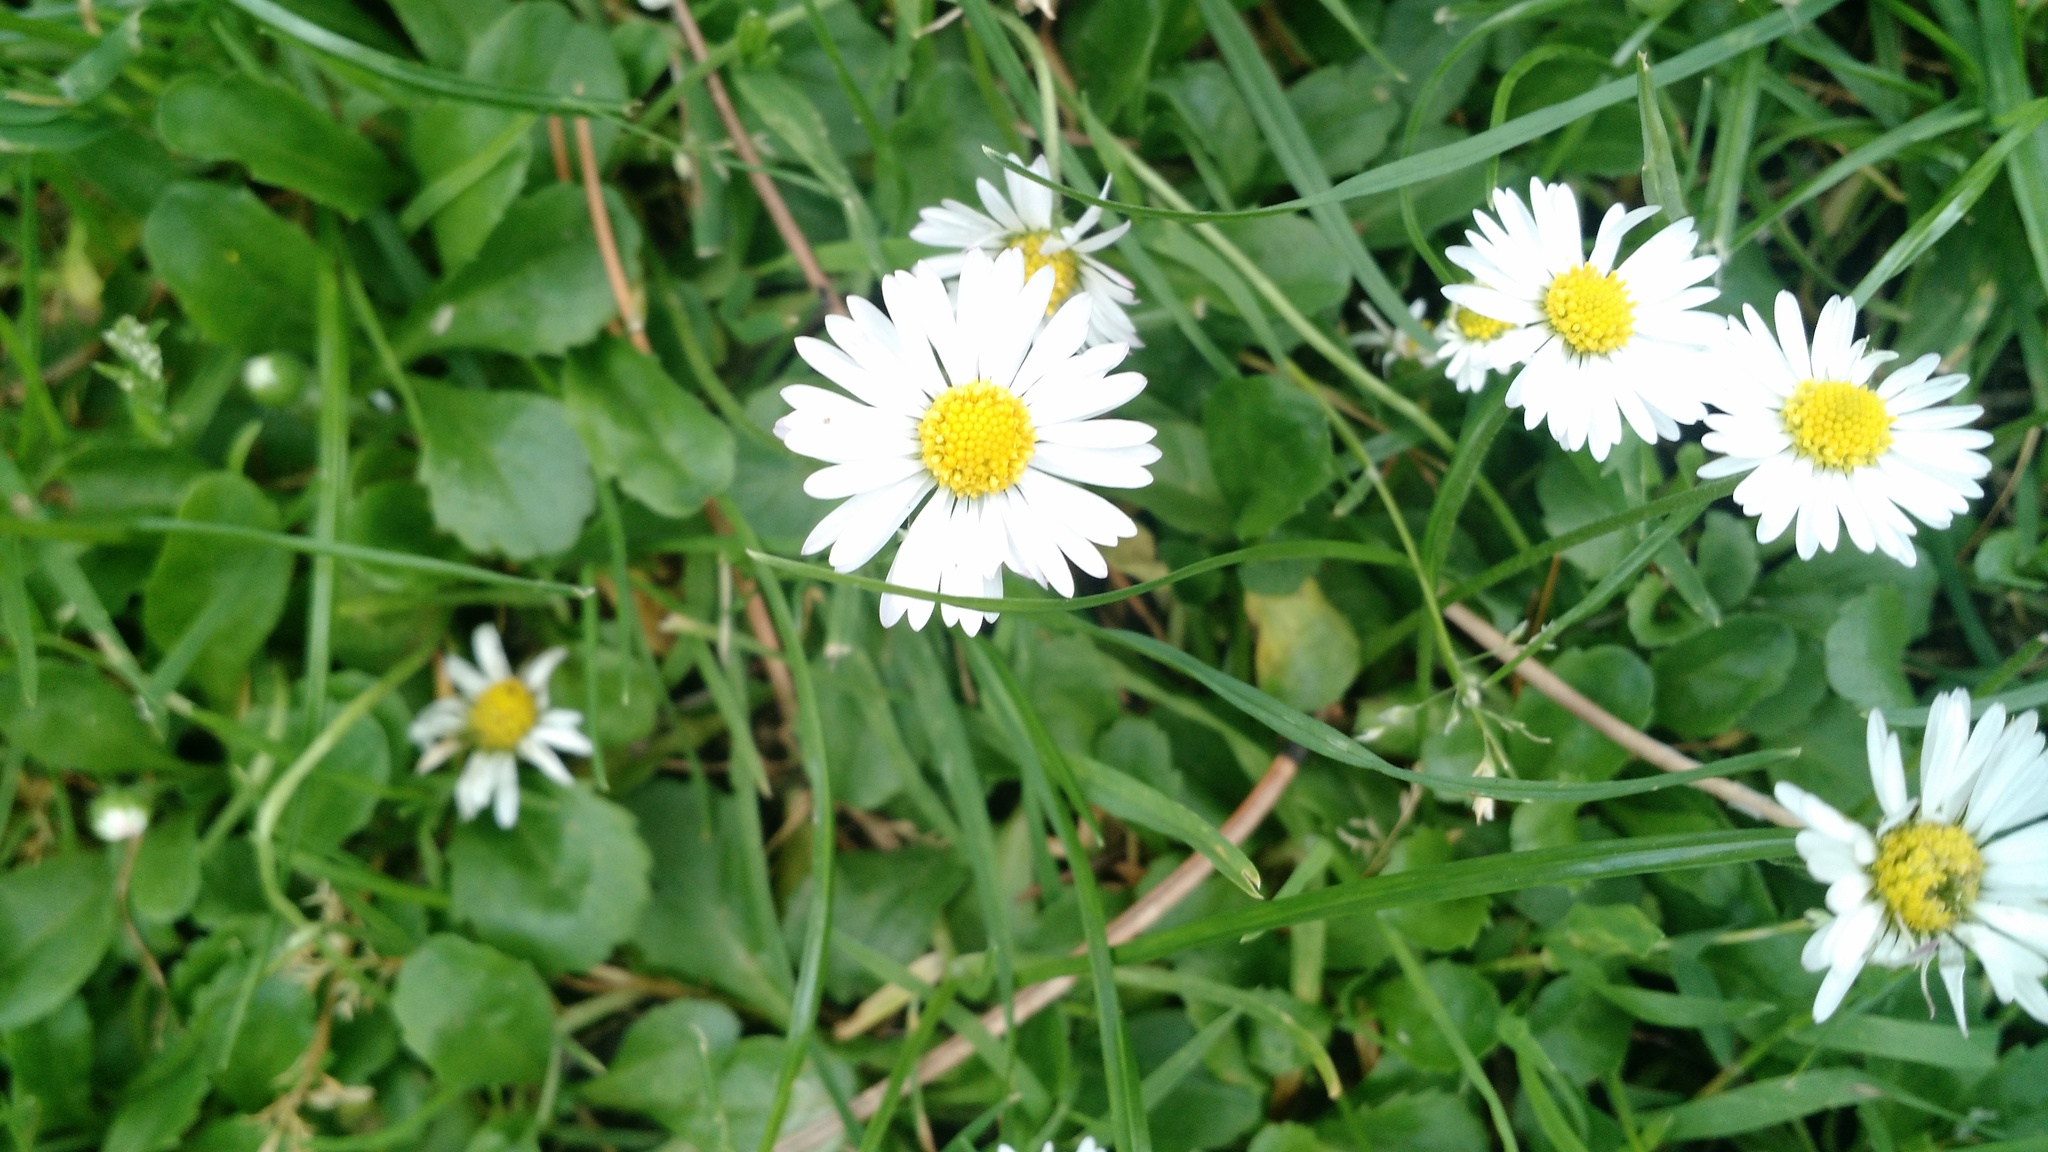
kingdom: Plantae
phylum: Tracheophyta
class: Magnoliopsida
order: Asterales
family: Asteraceae
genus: Bellis
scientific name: Bellis perennis
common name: Lawndaisy
